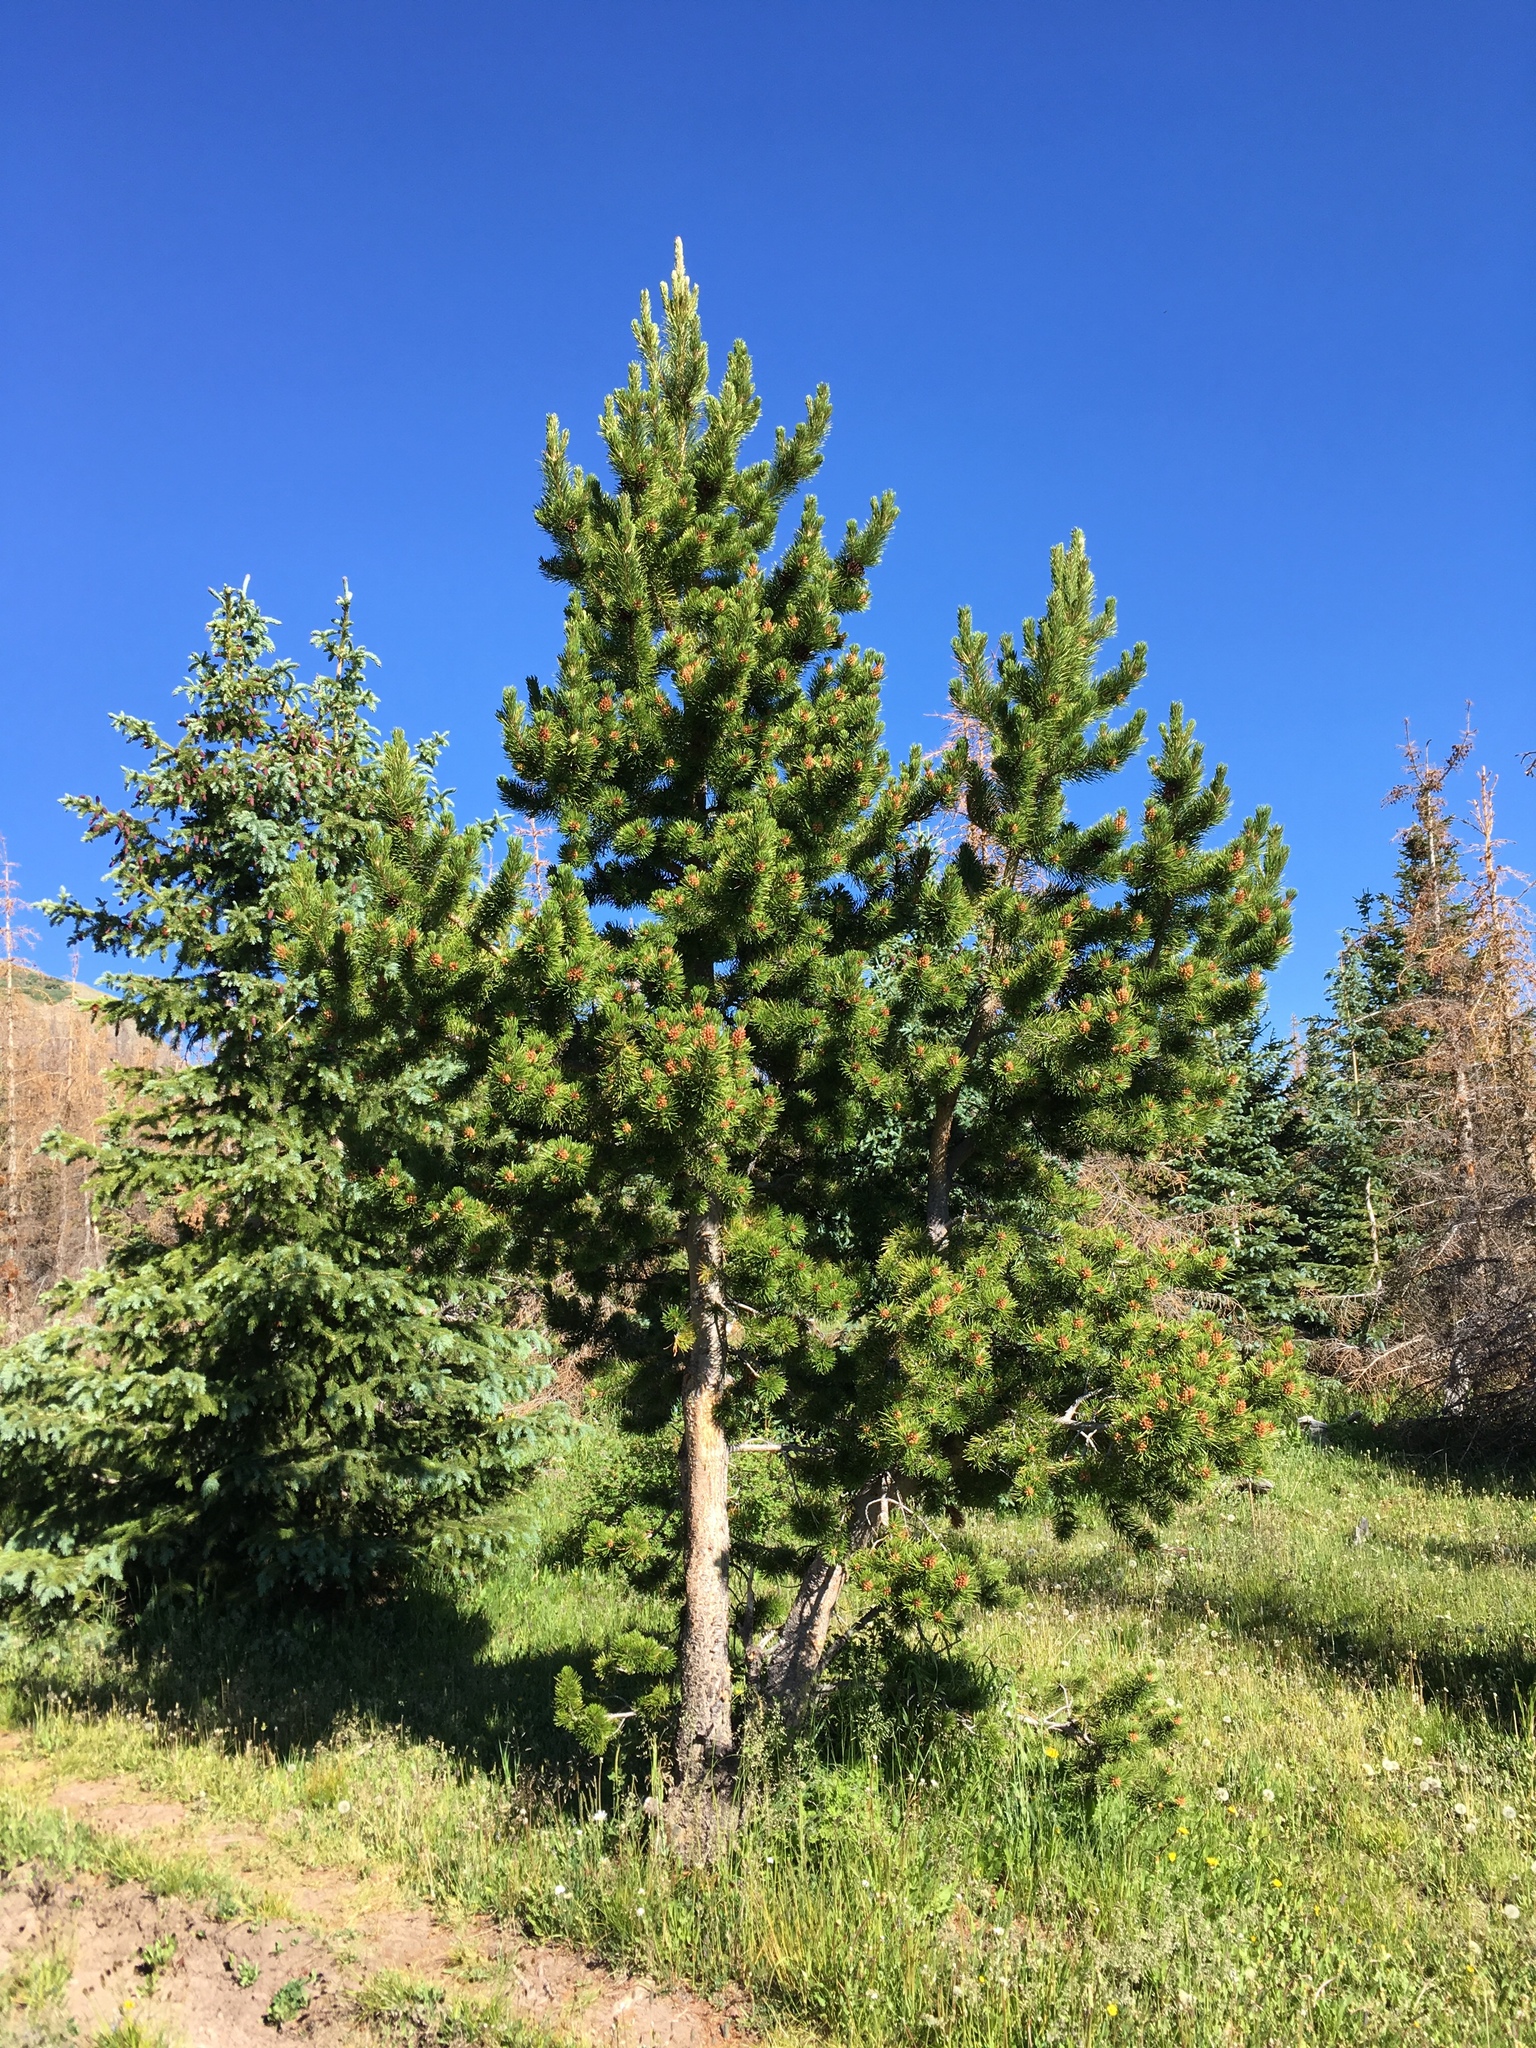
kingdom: Plantae
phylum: Tracheophyta
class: Pinopsida
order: Pinales
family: Pinaceae
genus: Pinus
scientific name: Pinus contorta
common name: Lodgepole pine
